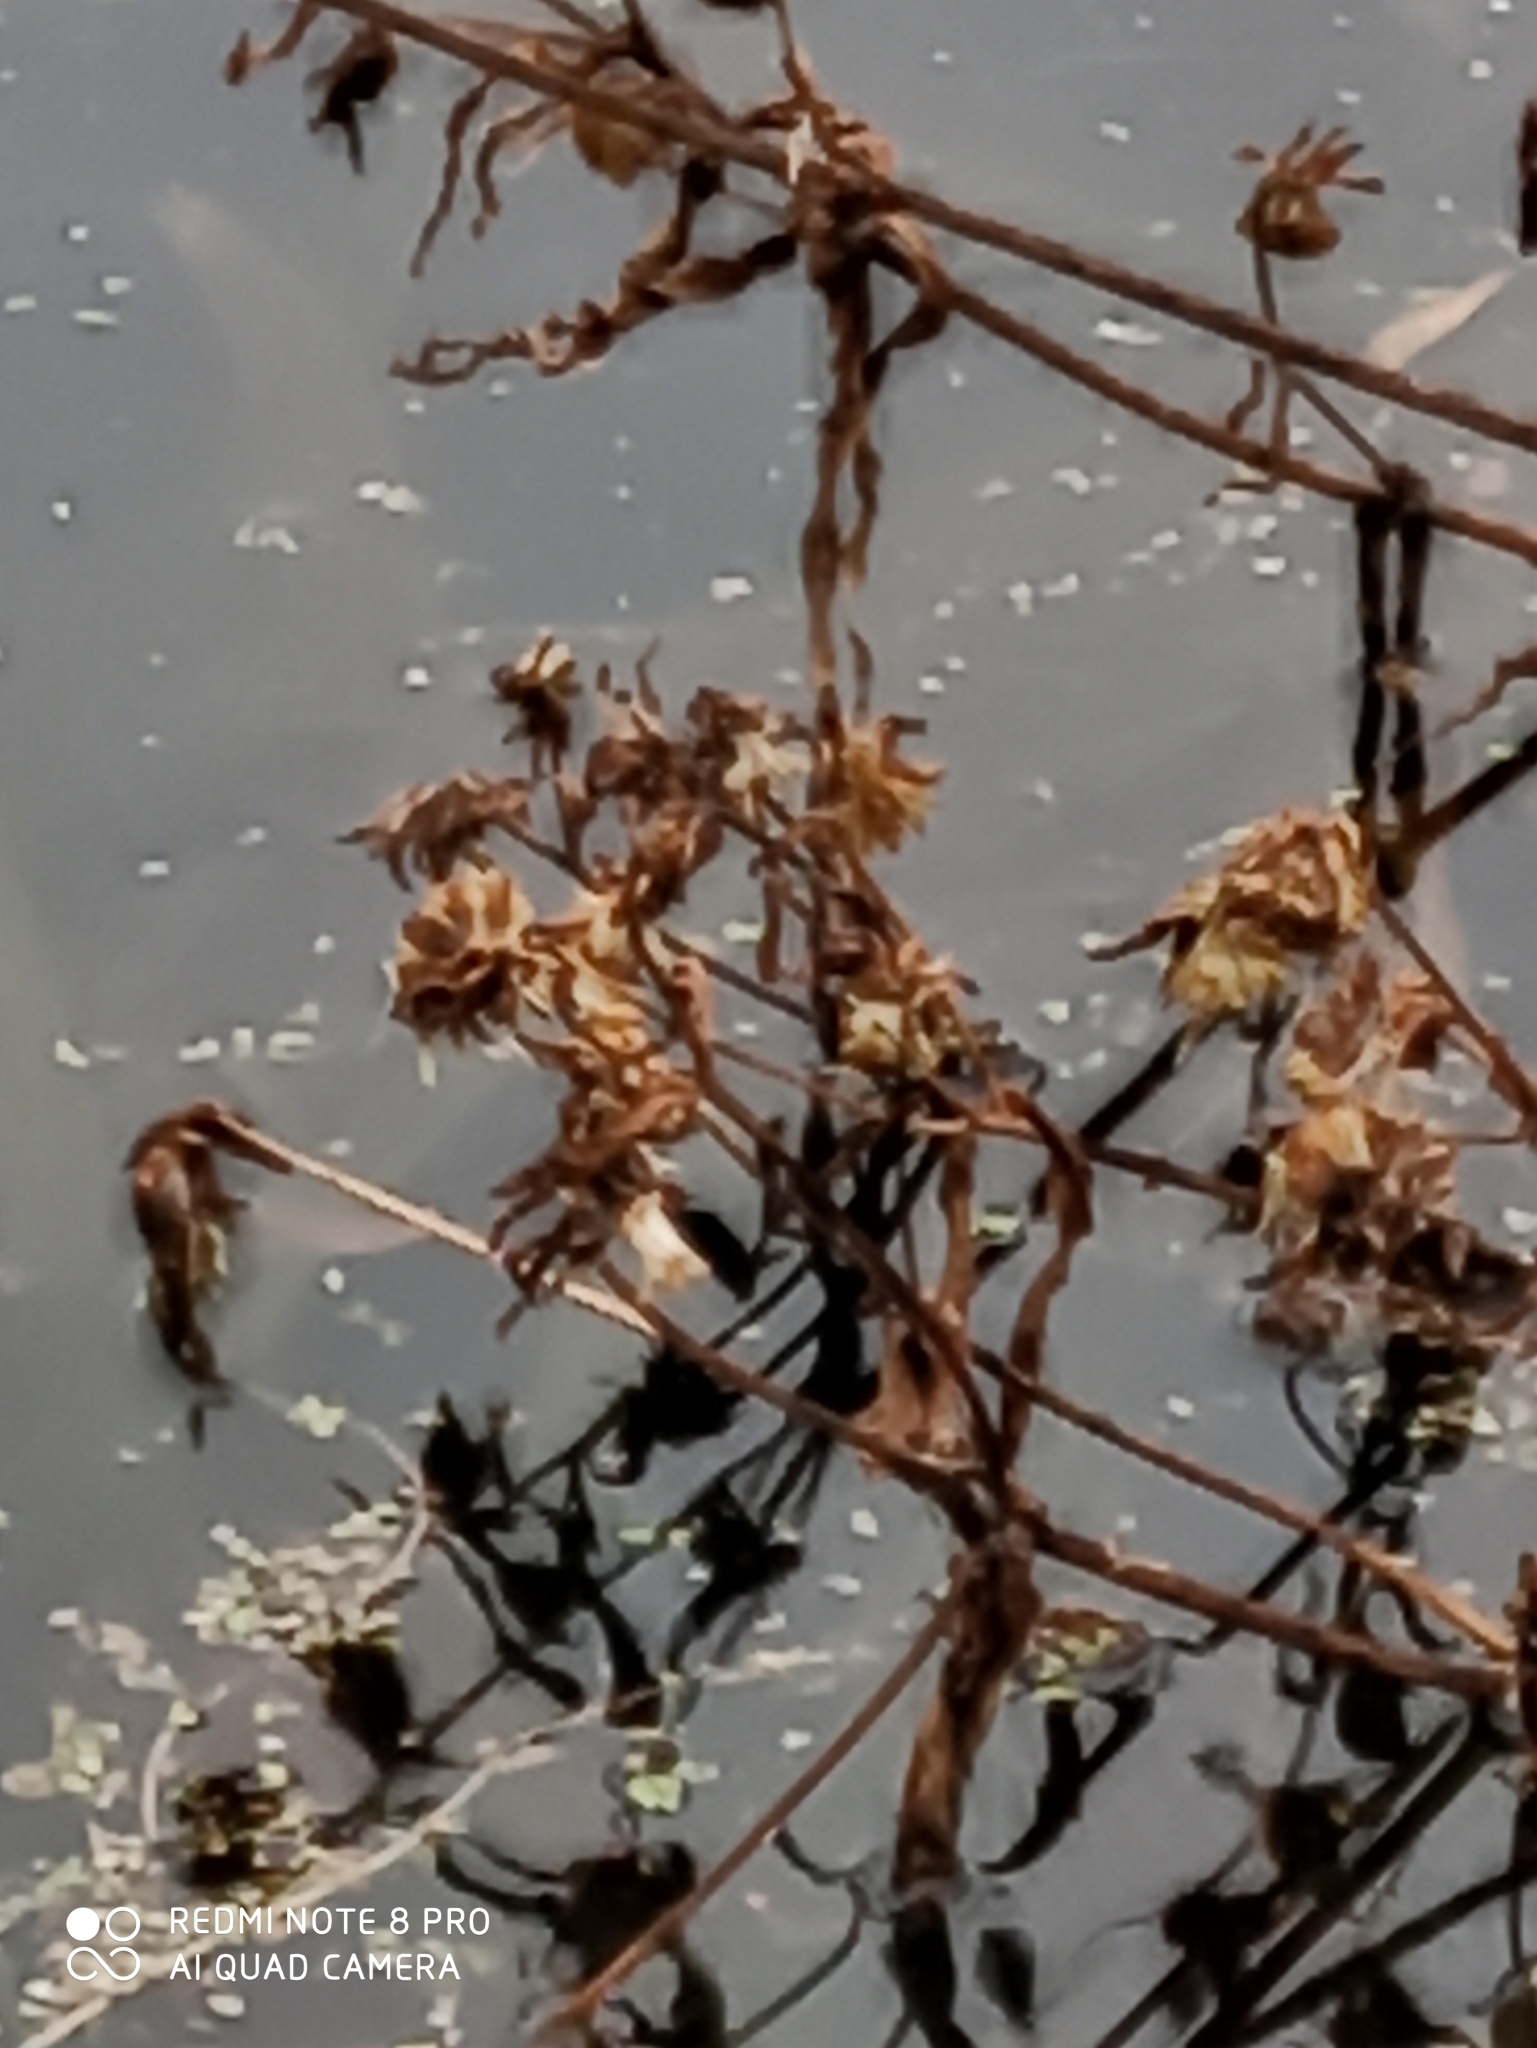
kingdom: Plantae
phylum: Tracheophyta
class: Magnoliopsida
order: Asterales
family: Asteraceae
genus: Bidens
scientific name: Bidens cernua
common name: Nodding bur-marigold
